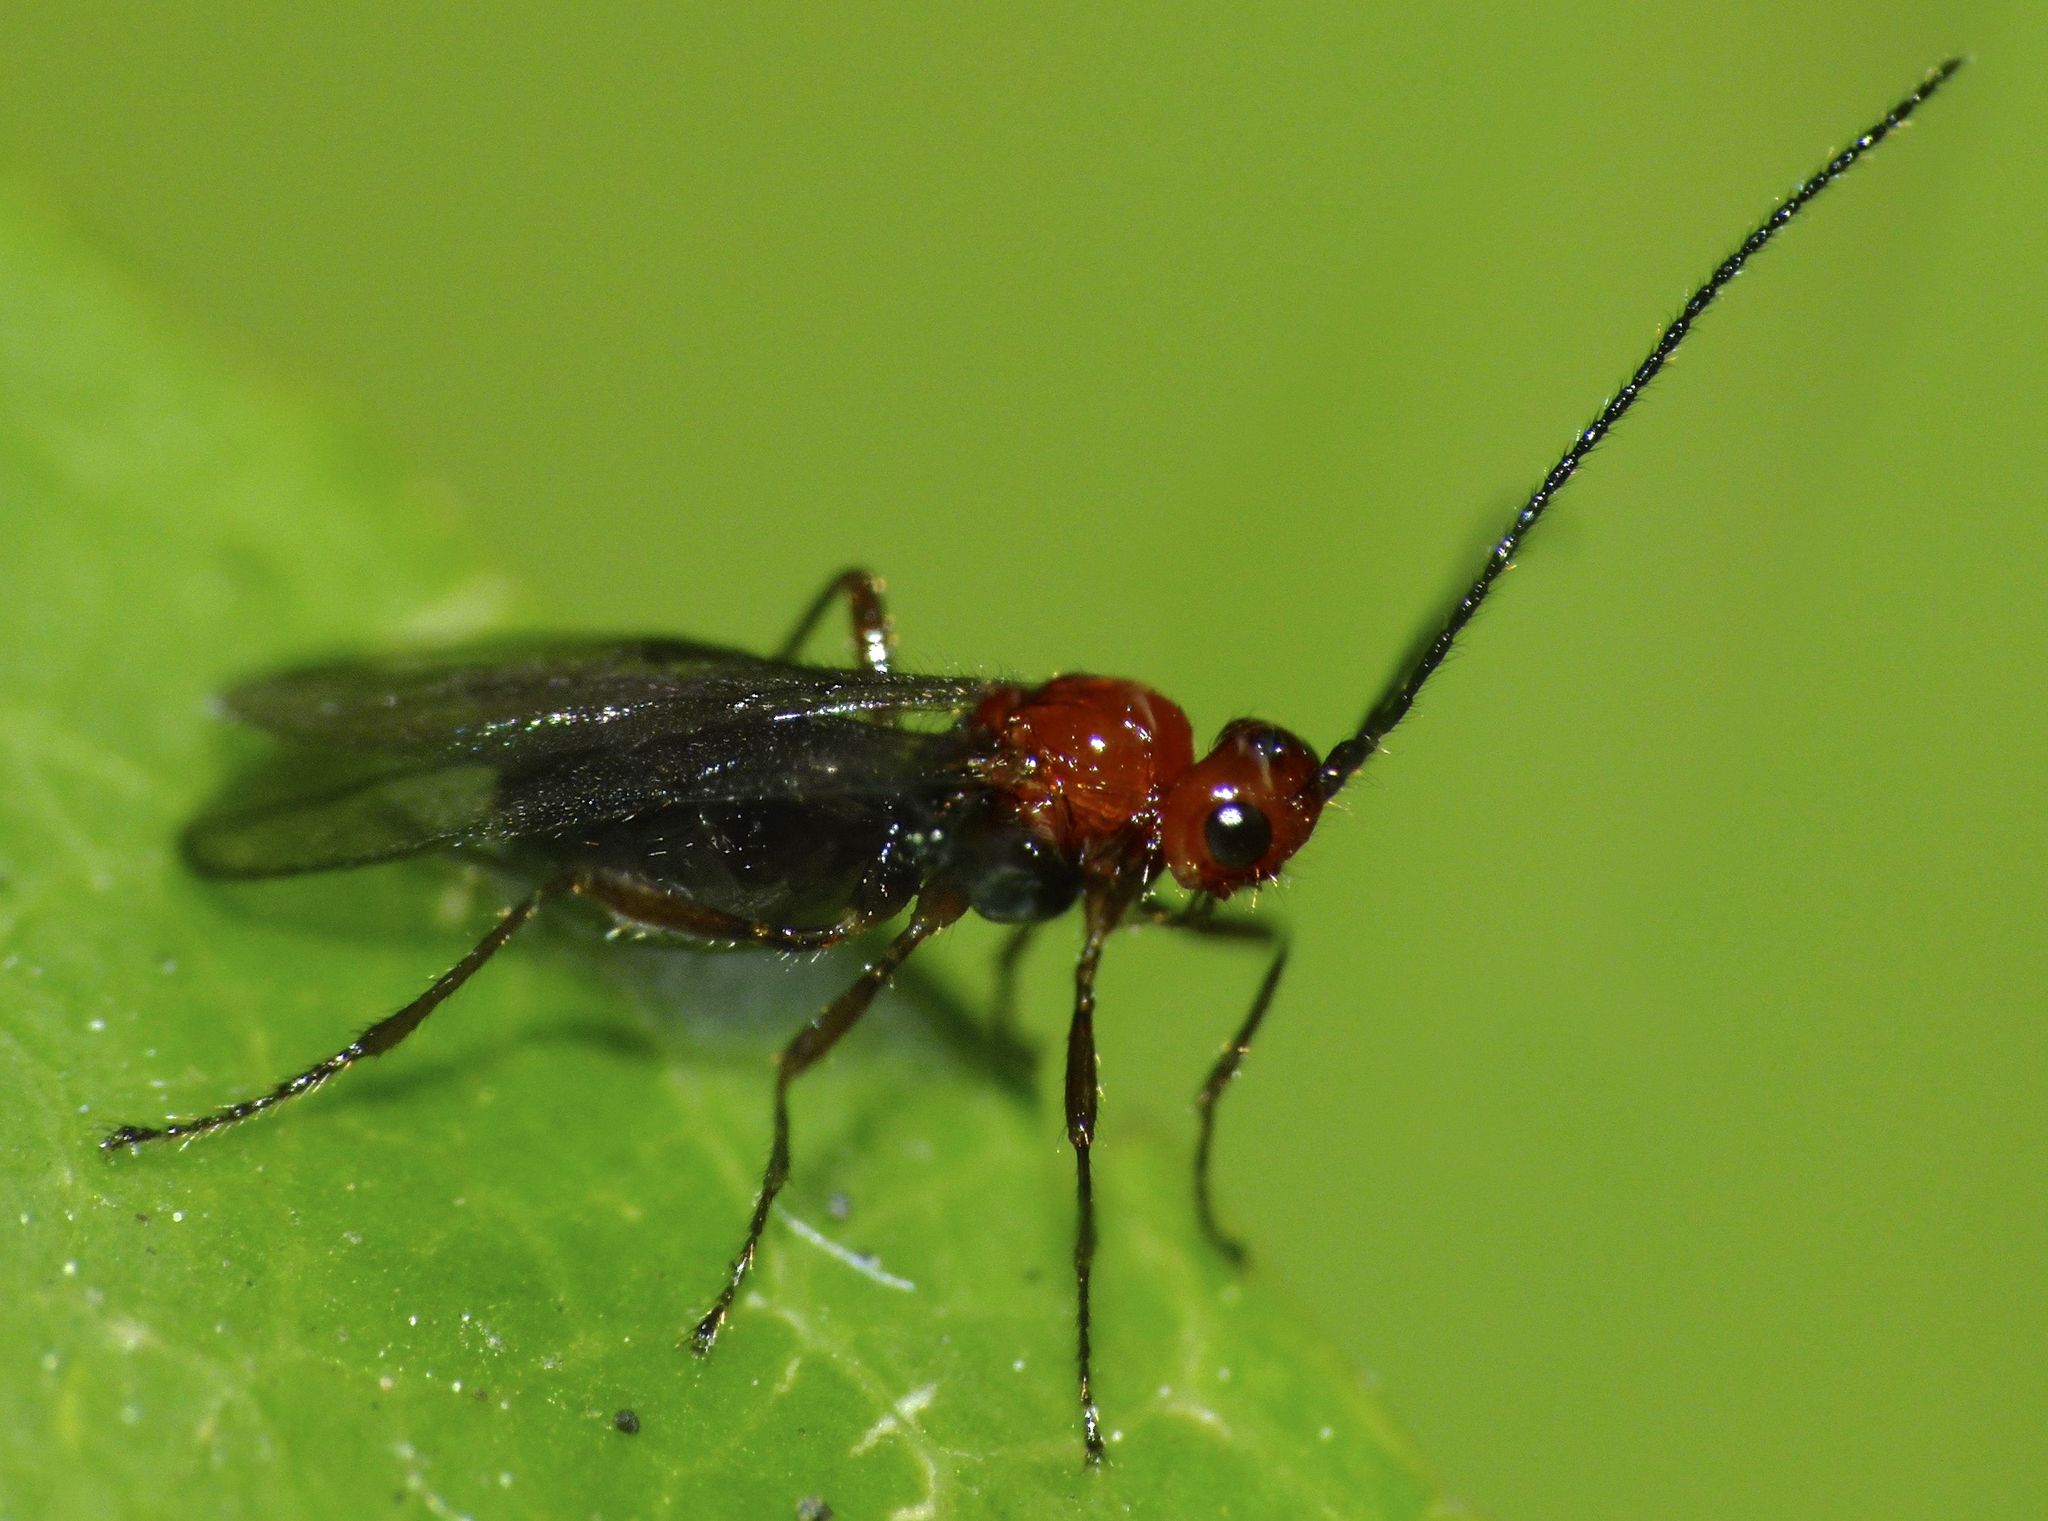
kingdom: Animalia
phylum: Arthropoda
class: Insecta
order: Hymenoptera
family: Braconidae
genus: Asobara
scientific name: Asobara antipoda
